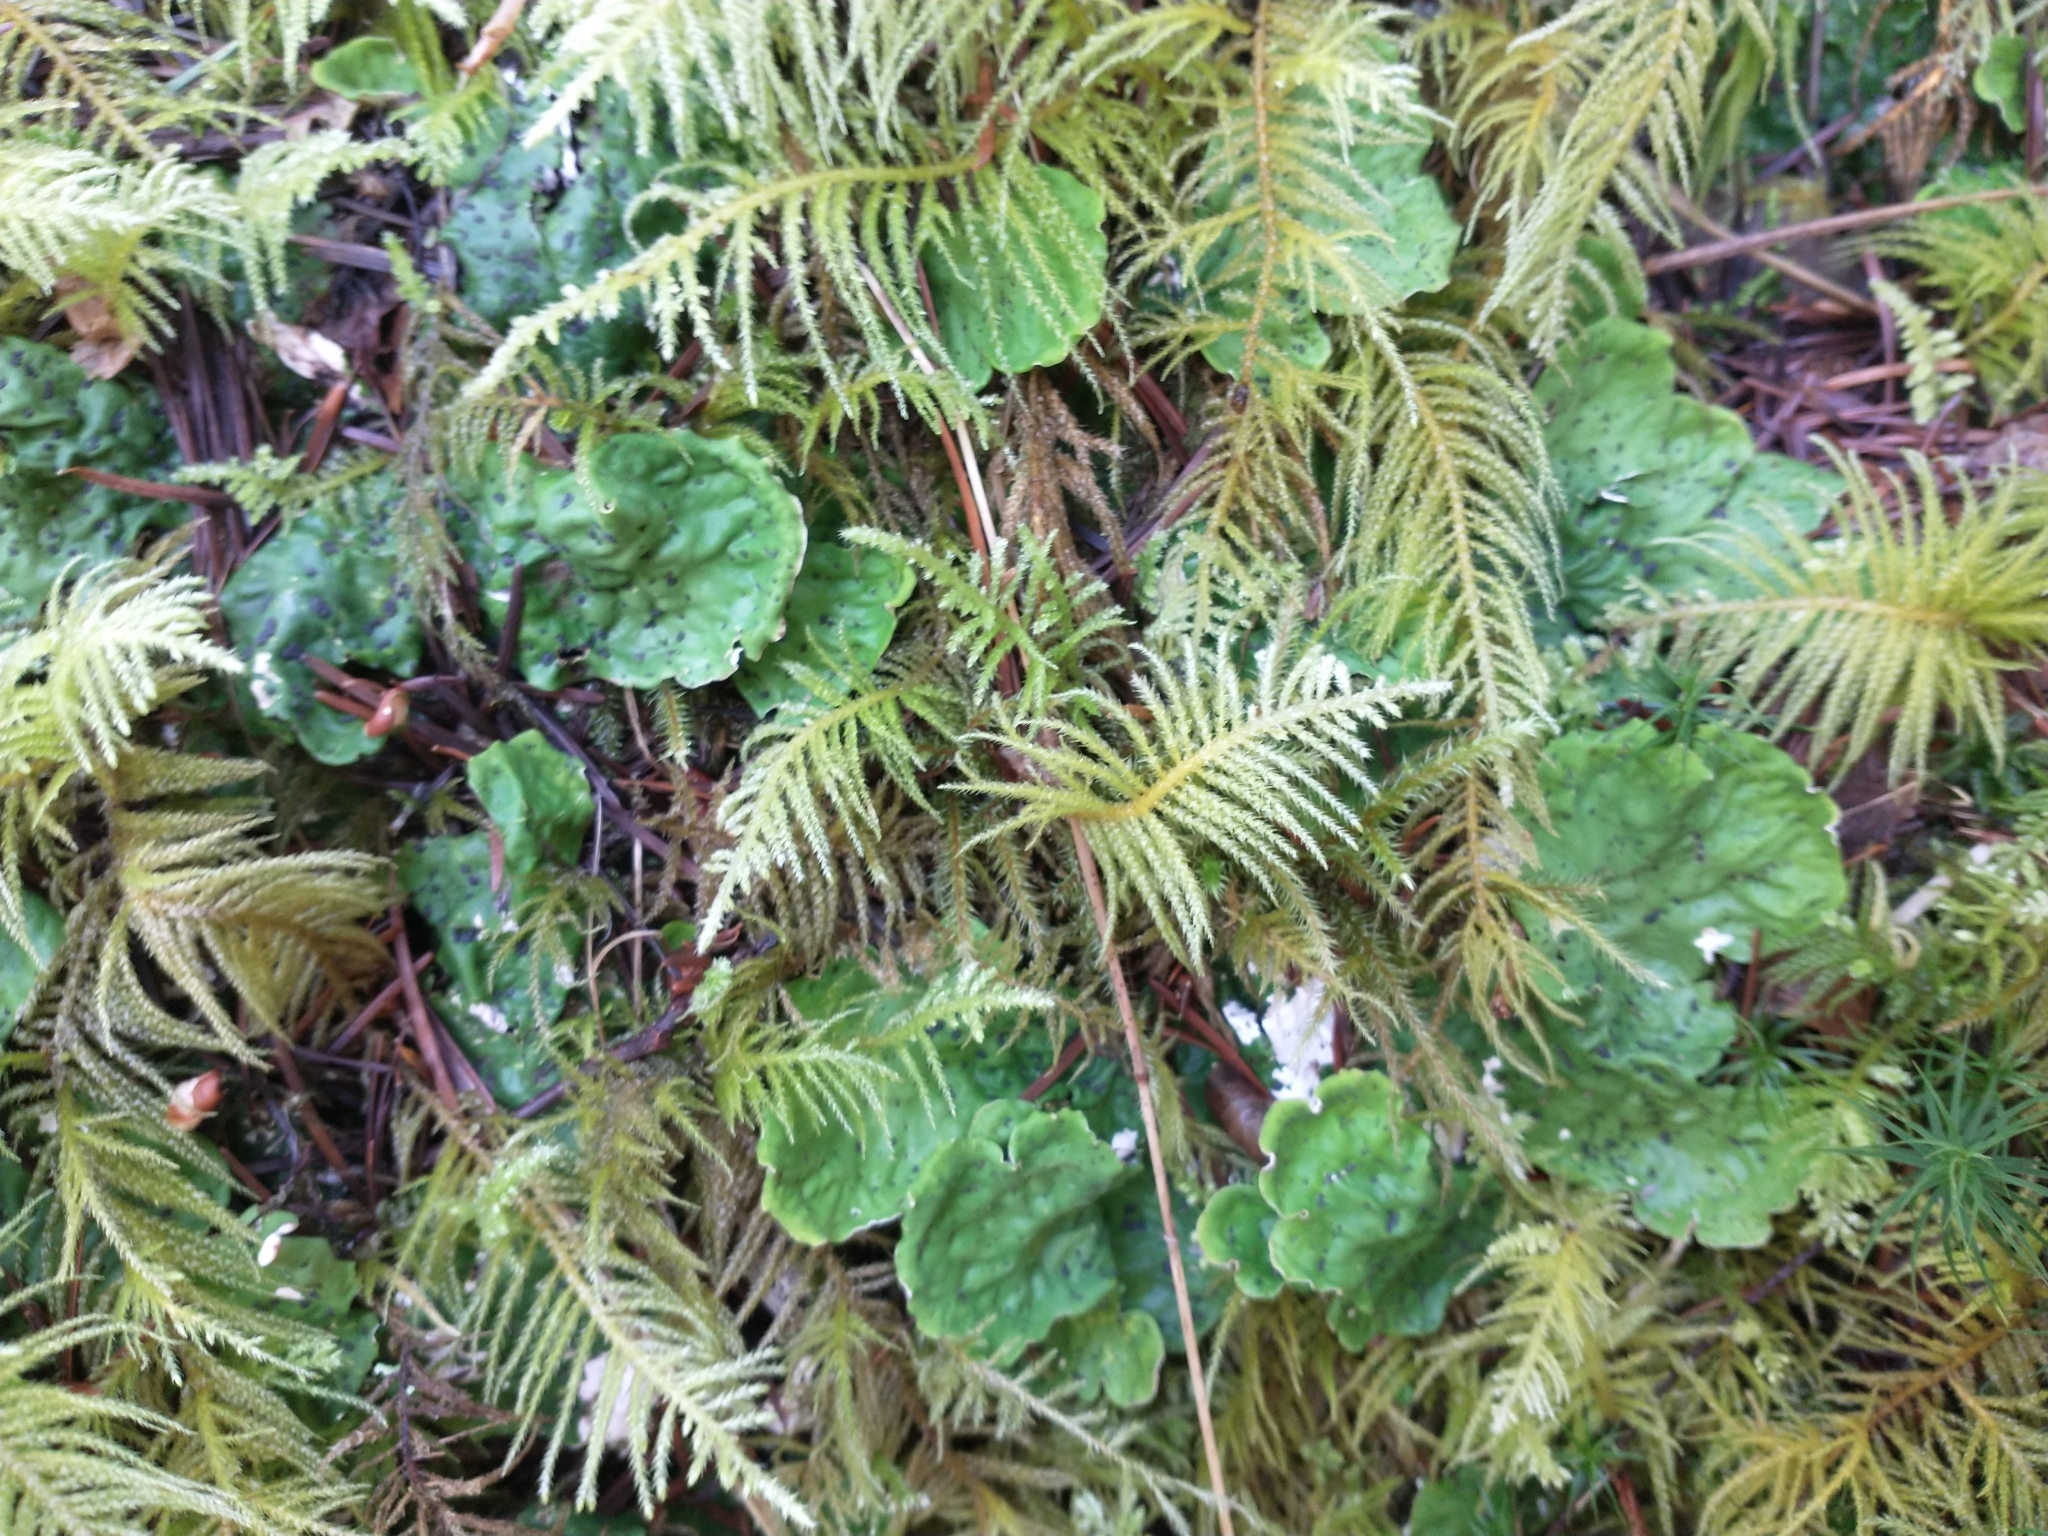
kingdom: Plantae
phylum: Bryophyta
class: Bryopsida
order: Hypnales
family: Brachytheciaceae
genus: Kindbergia
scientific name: Kindbergia oregana
